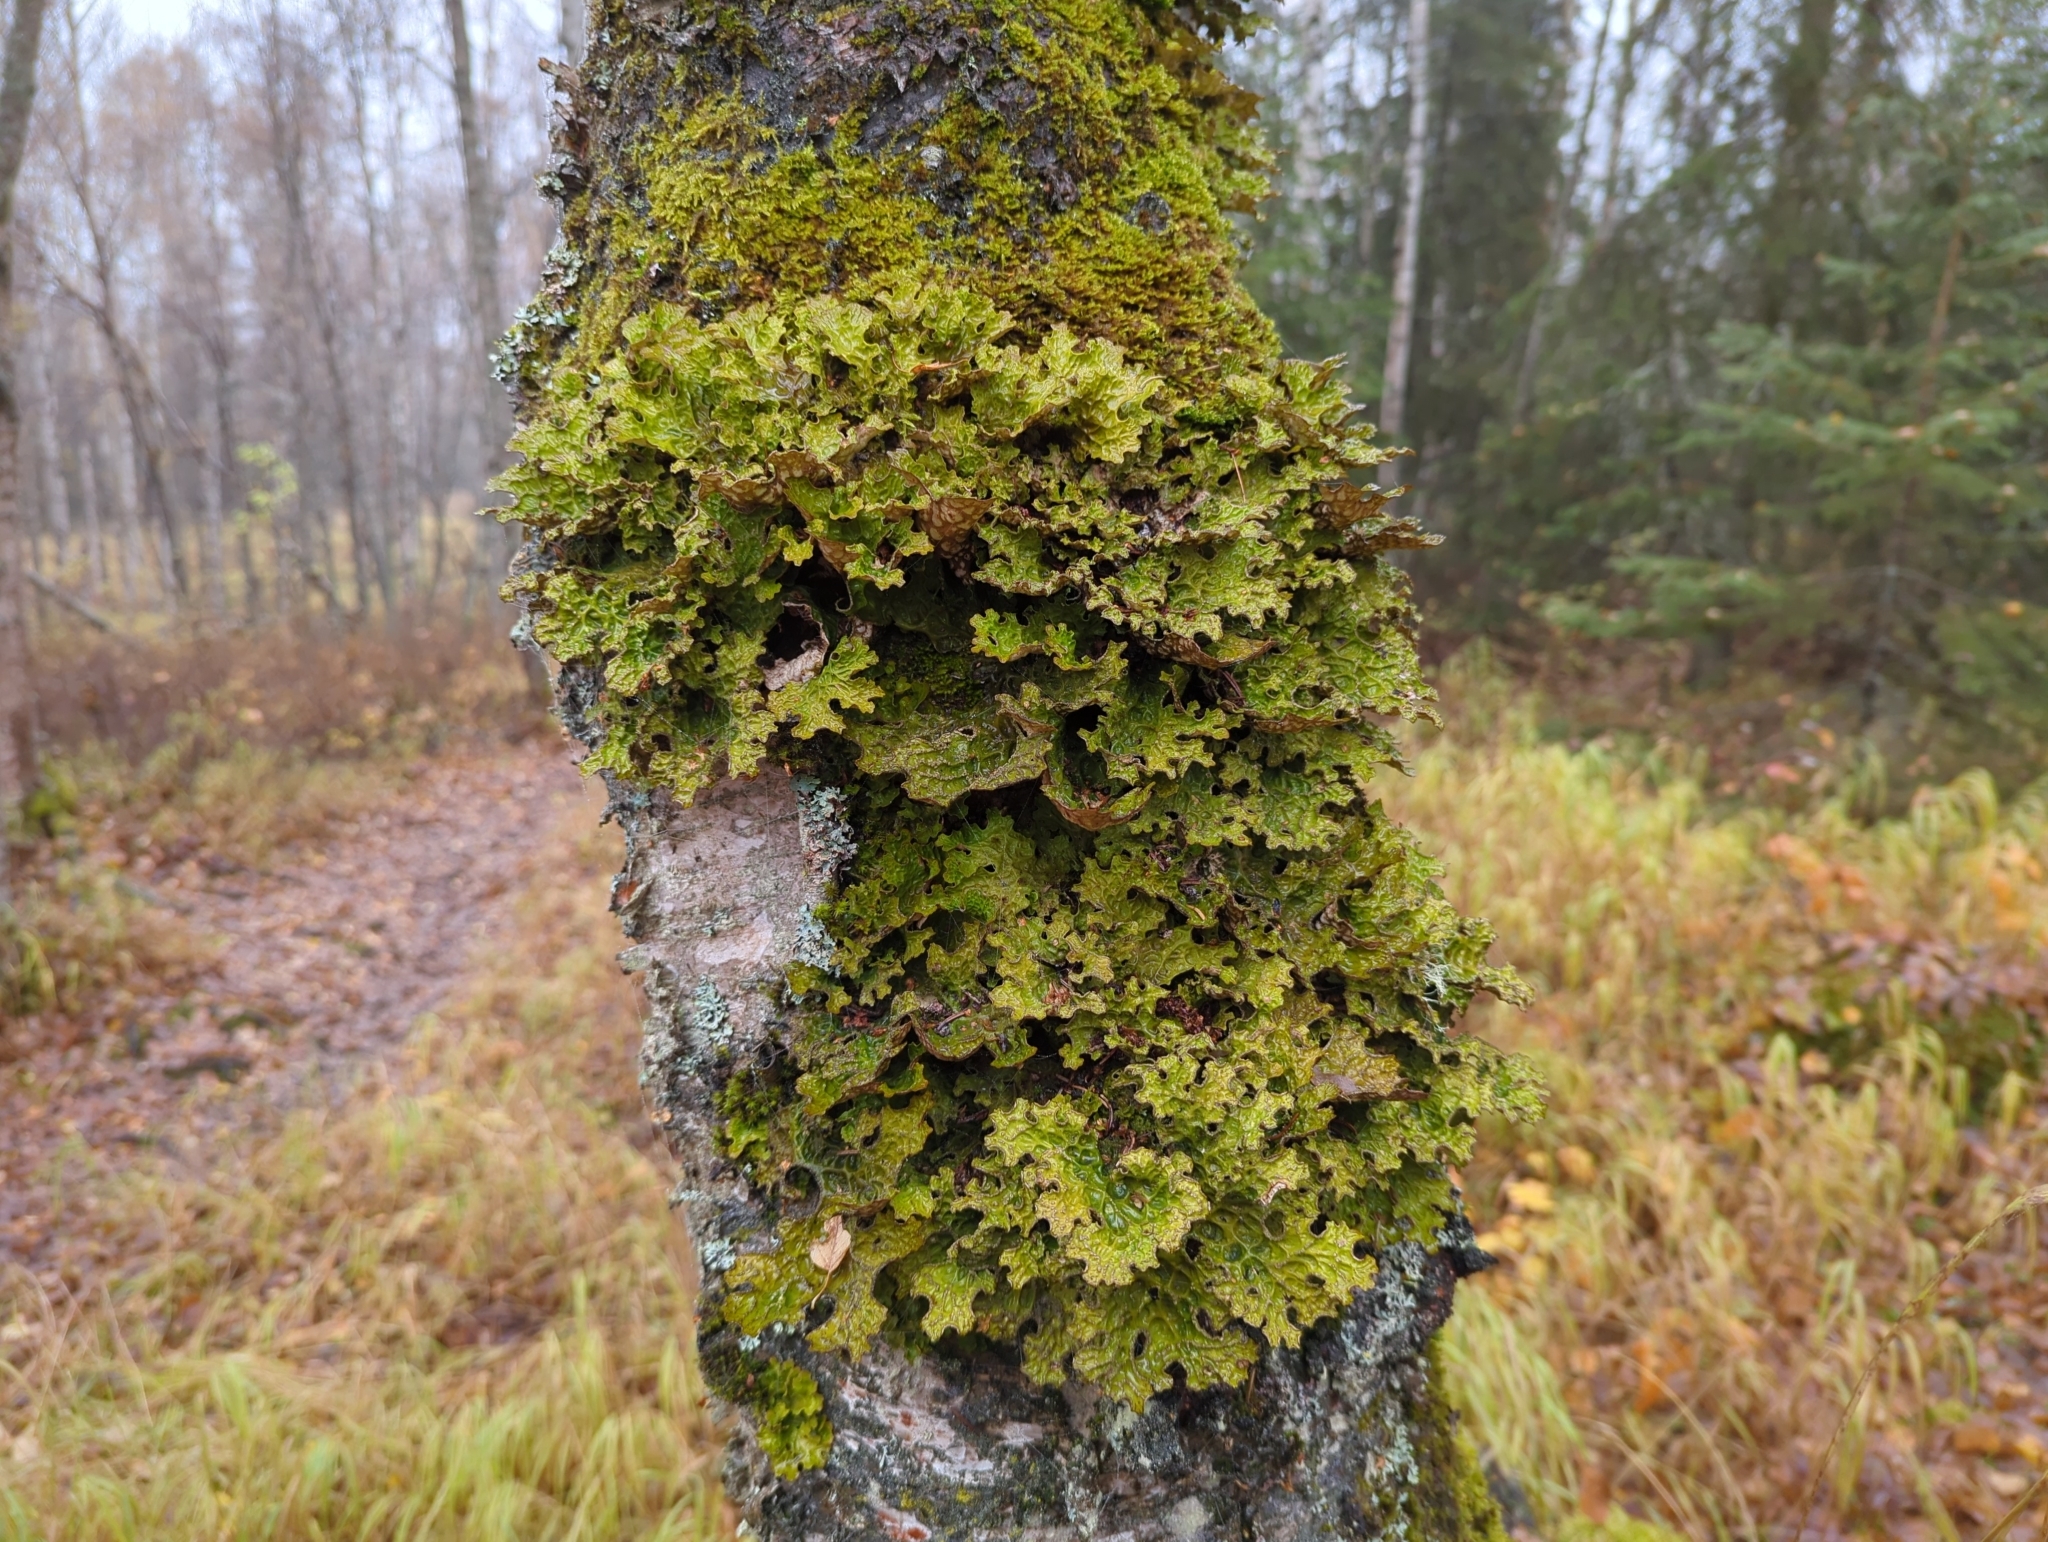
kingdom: Fungi
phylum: Ascomycota
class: Lecanoromycetes
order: Peltigerales
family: Lobariaceae
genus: Lobaria
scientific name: Lobaria pulmonaria
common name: Lungwort
